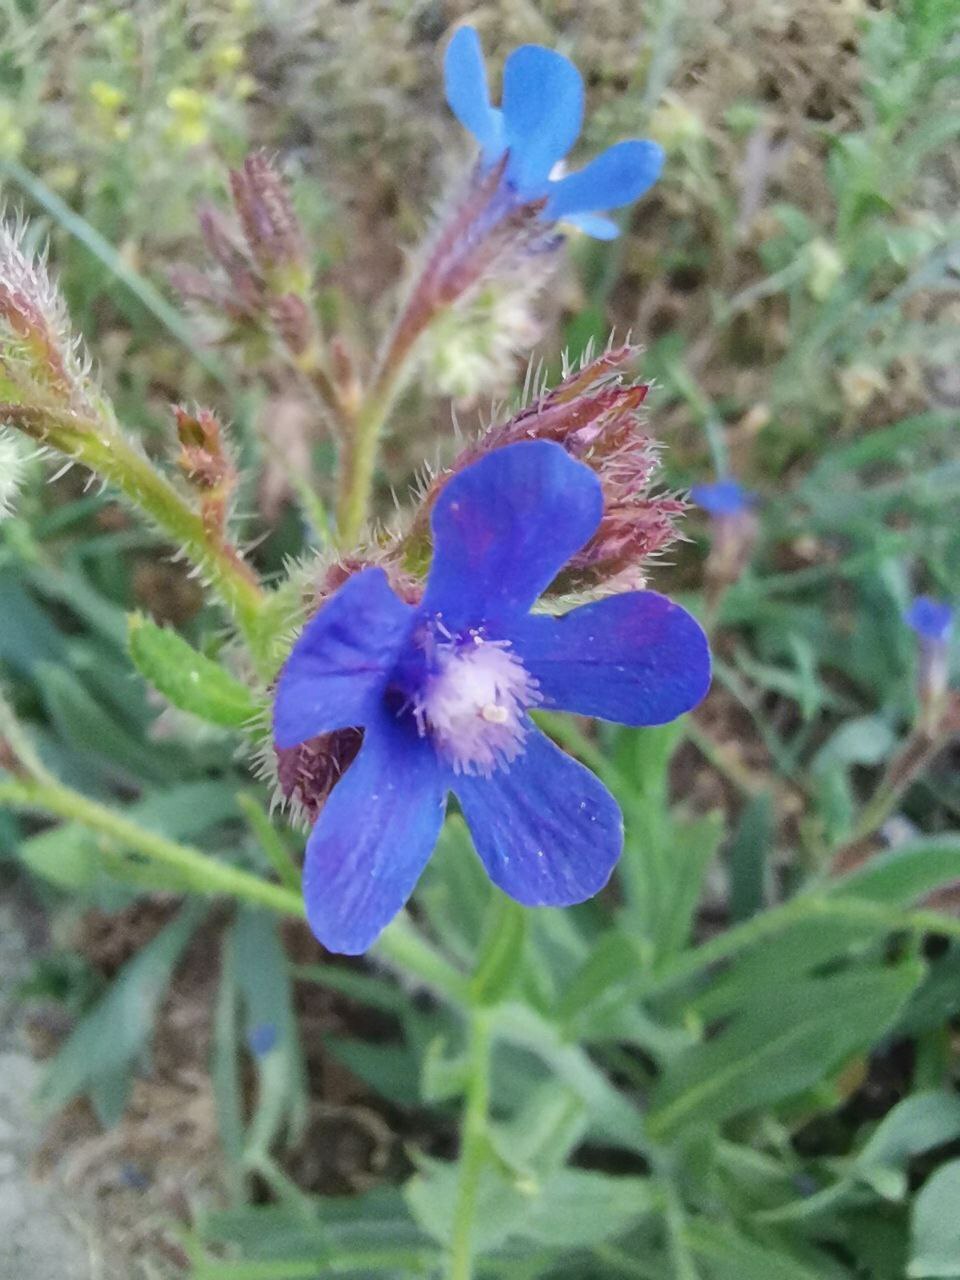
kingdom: Plantae
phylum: Tracheophyta
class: Magnoliopsida
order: Boraginales
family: Boraginaceae
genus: Anchusa
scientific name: Anchusa azurea
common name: Garden anchusa
